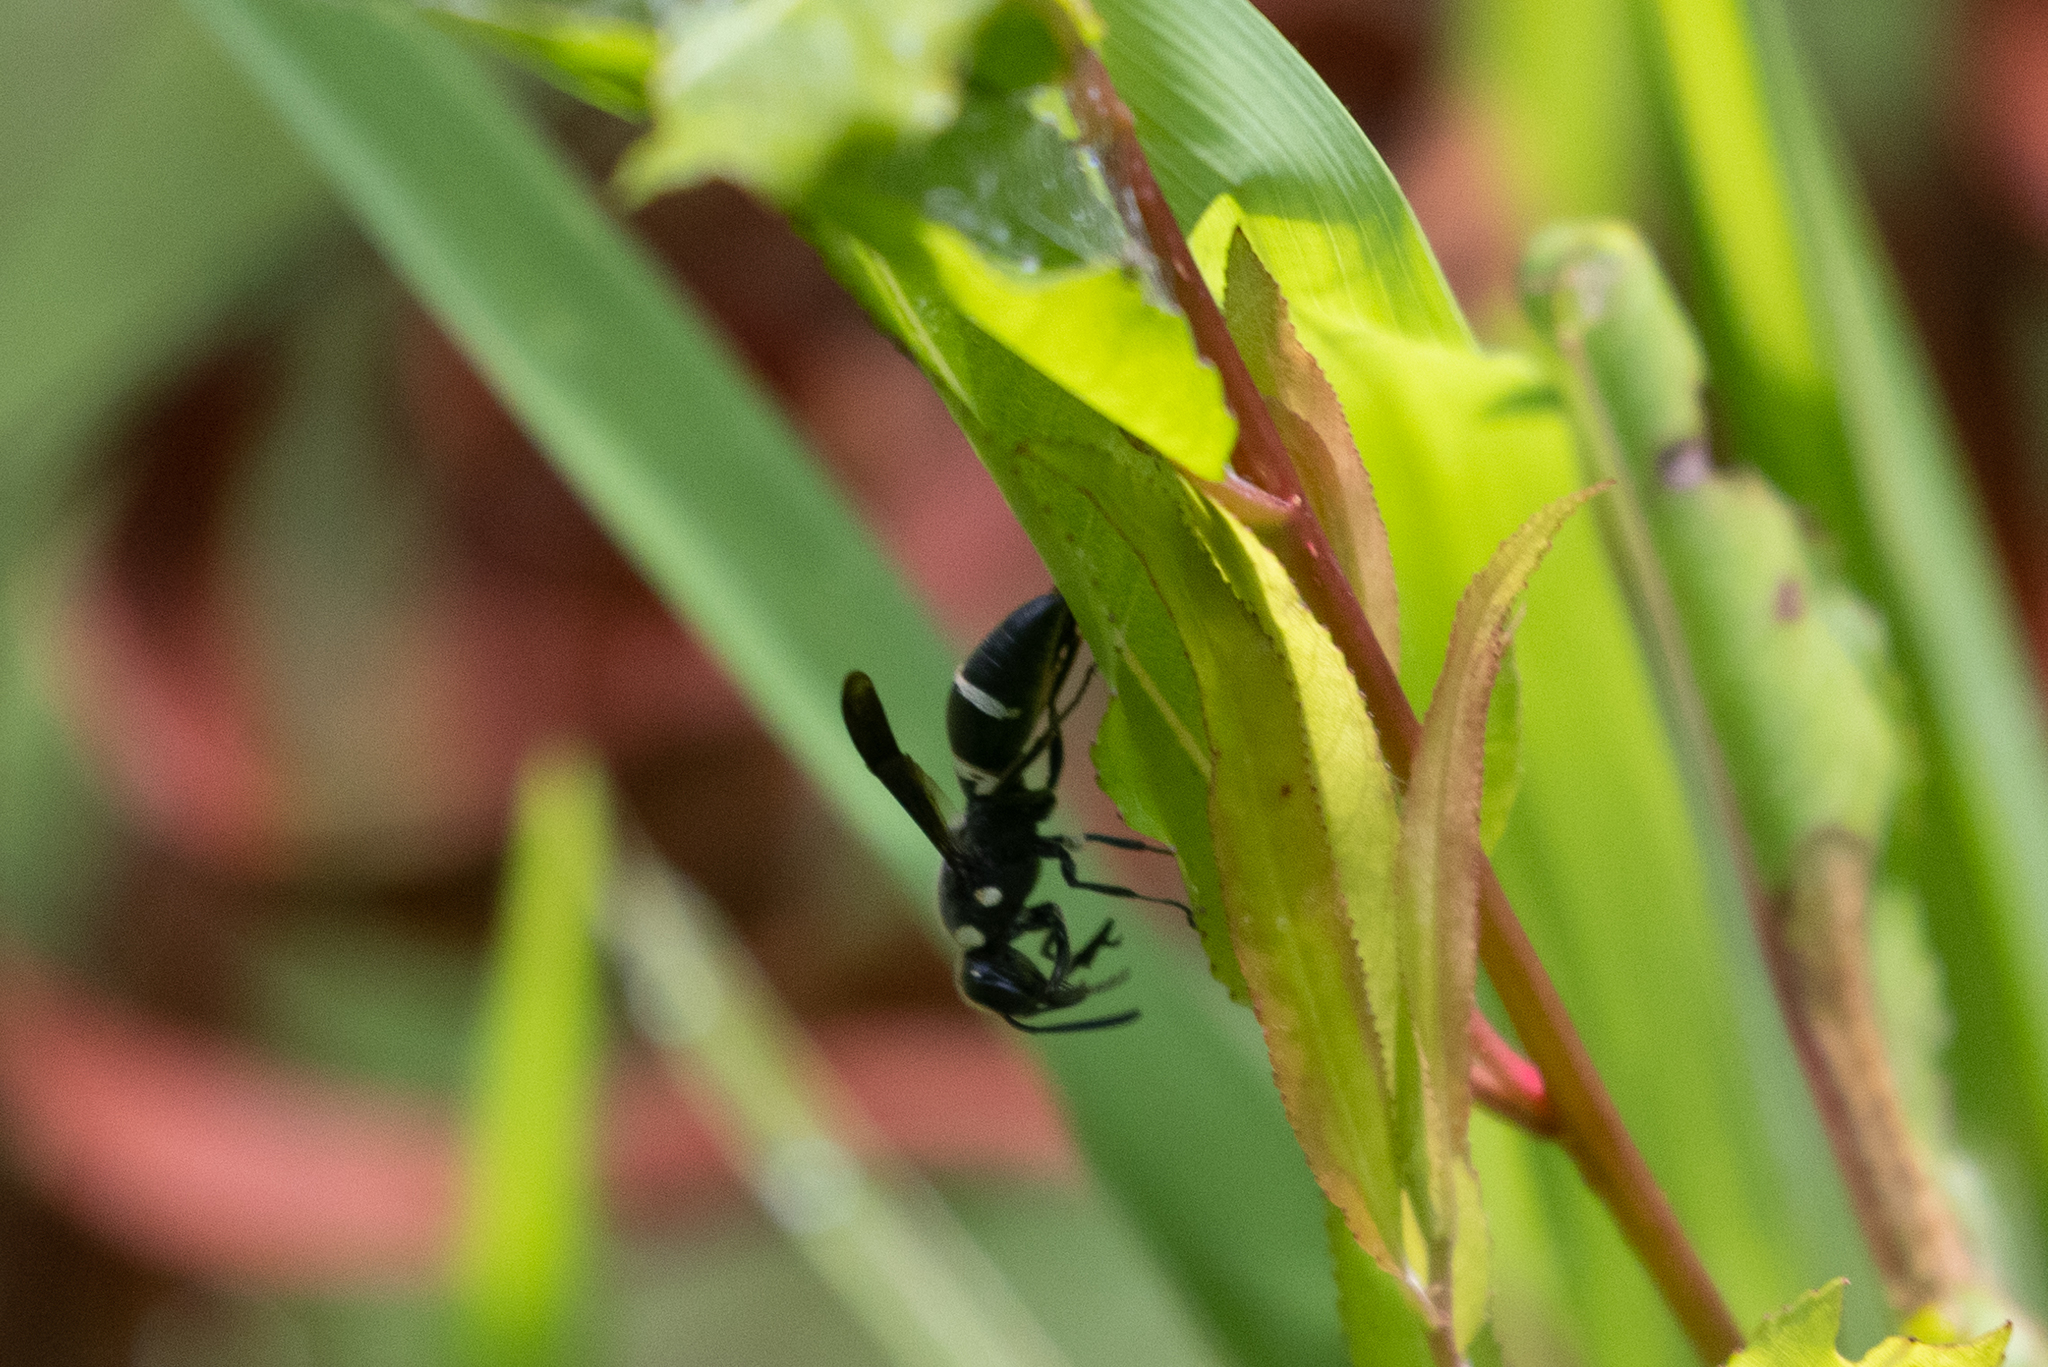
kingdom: Animalia
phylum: Arthropoda
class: Insecta
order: Hymenoptera
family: Eumenidae
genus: Euodynerus
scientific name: Euodynerus megaera
